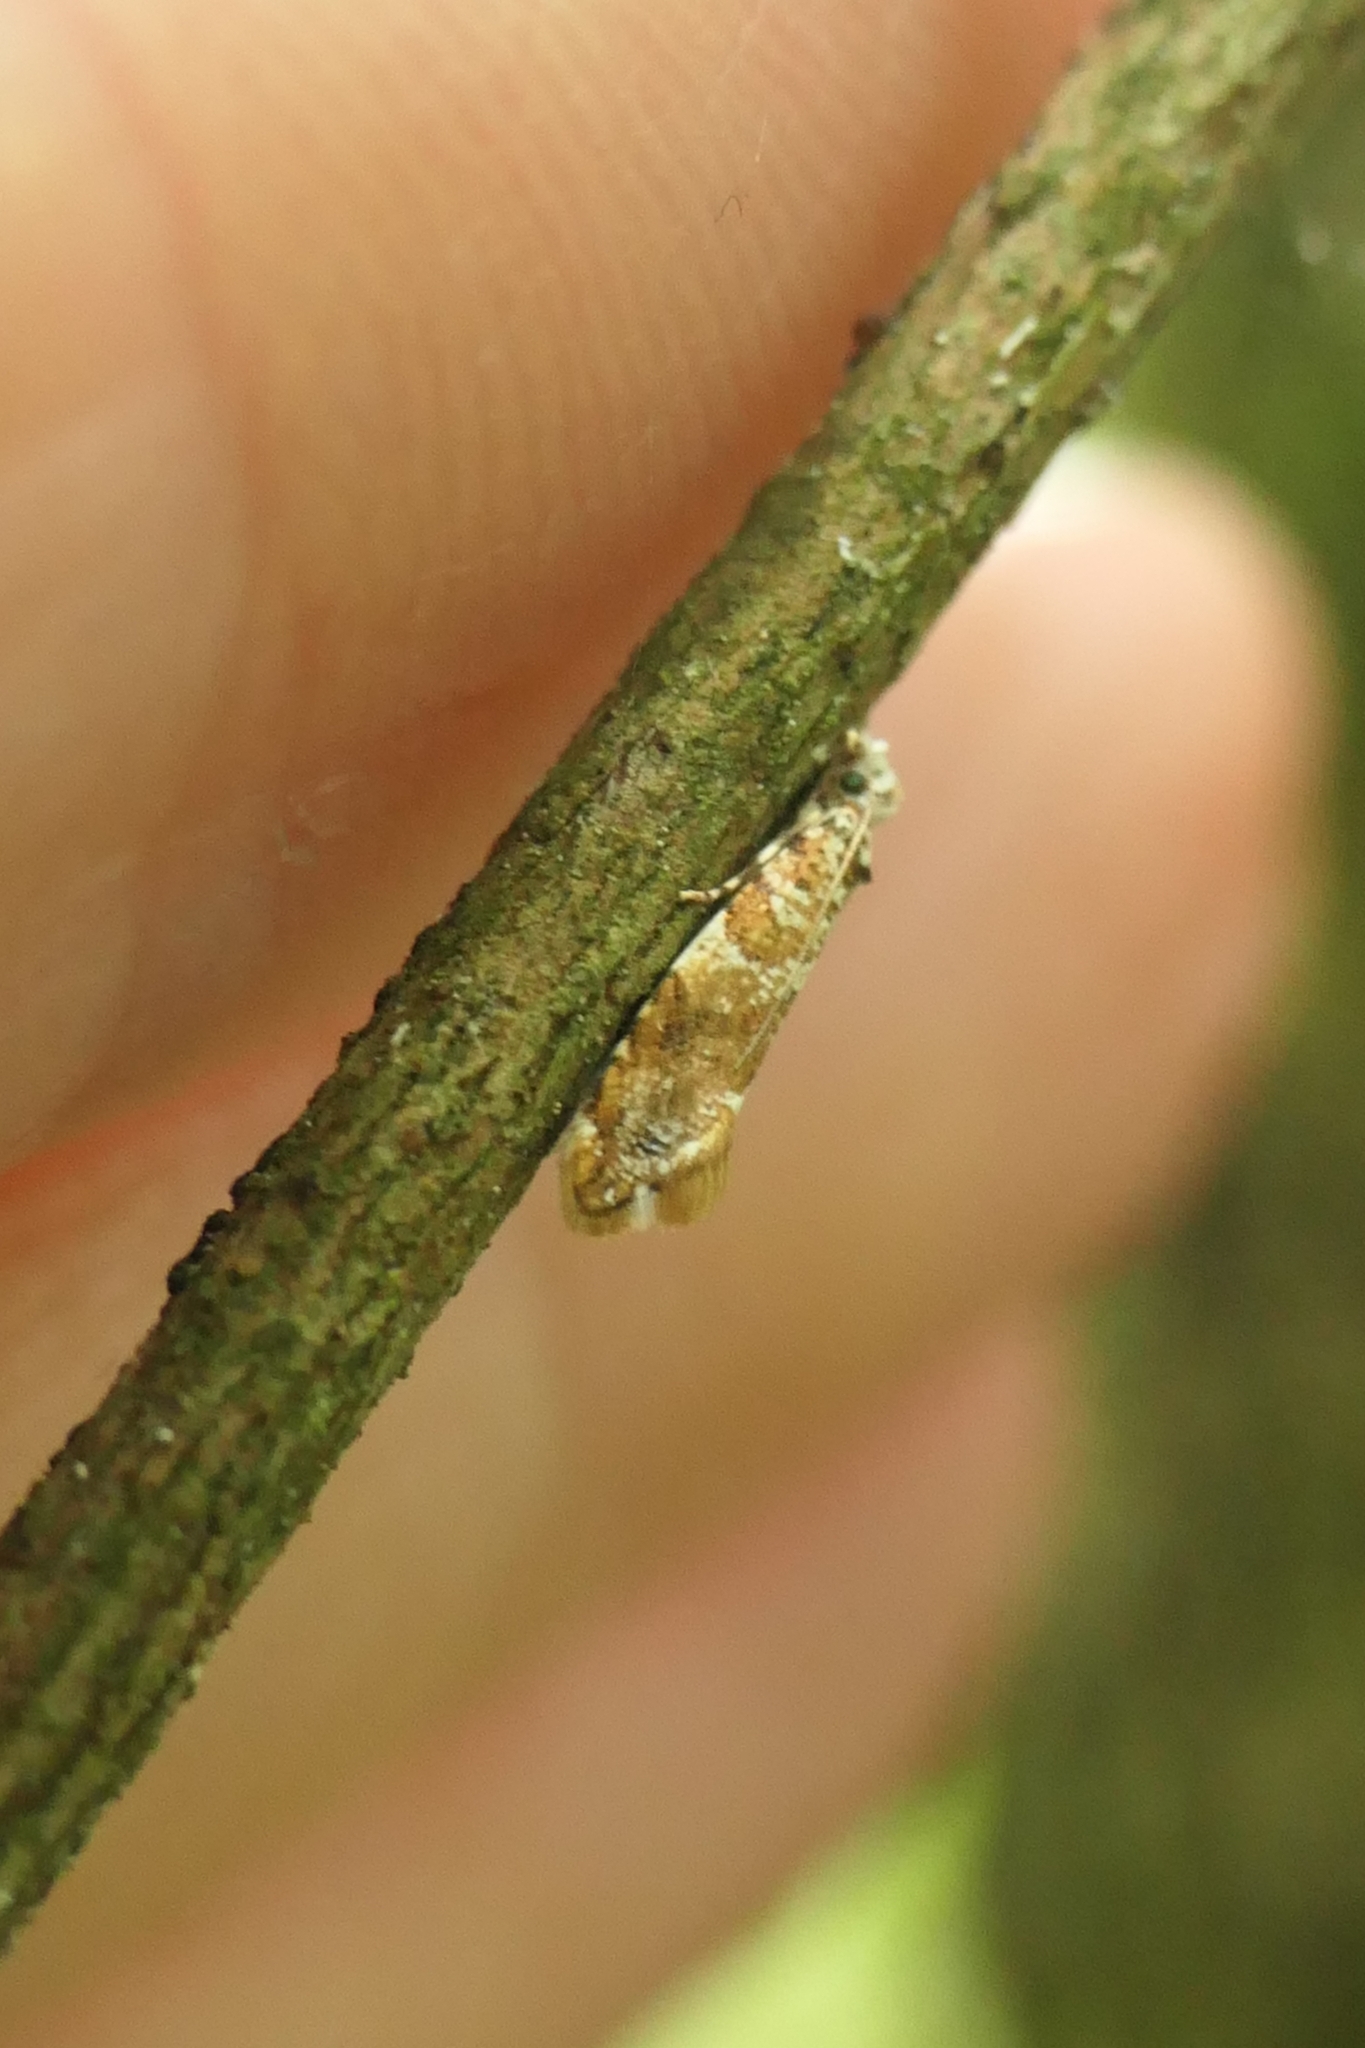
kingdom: Animalia
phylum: Arthropoda
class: Insecta
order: Lepidoptera
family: Tineidae
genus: Eschatotypa
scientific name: Eschatotypa derogatella
